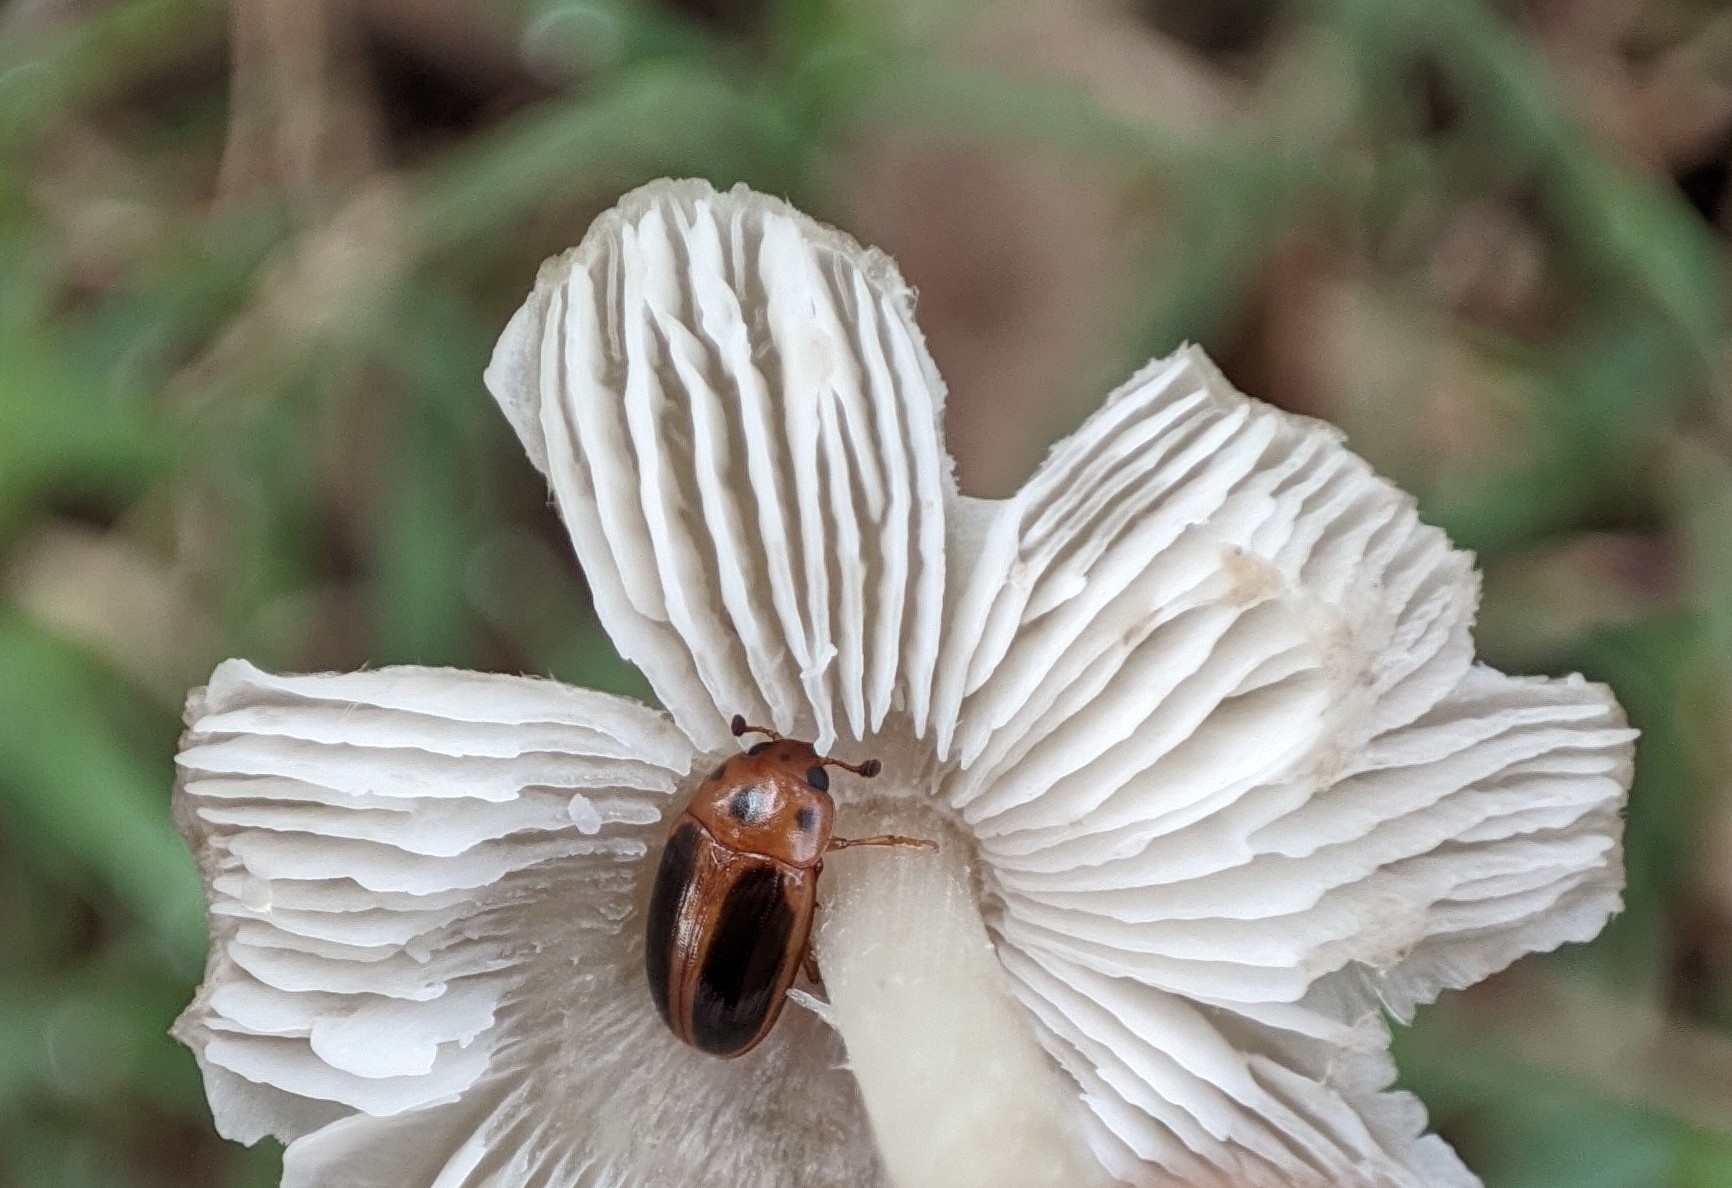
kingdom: Animalia
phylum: Arthropoda
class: Insecta
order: Coleoptera
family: Erotylidae
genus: Amblyopus
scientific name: Amblyopus
